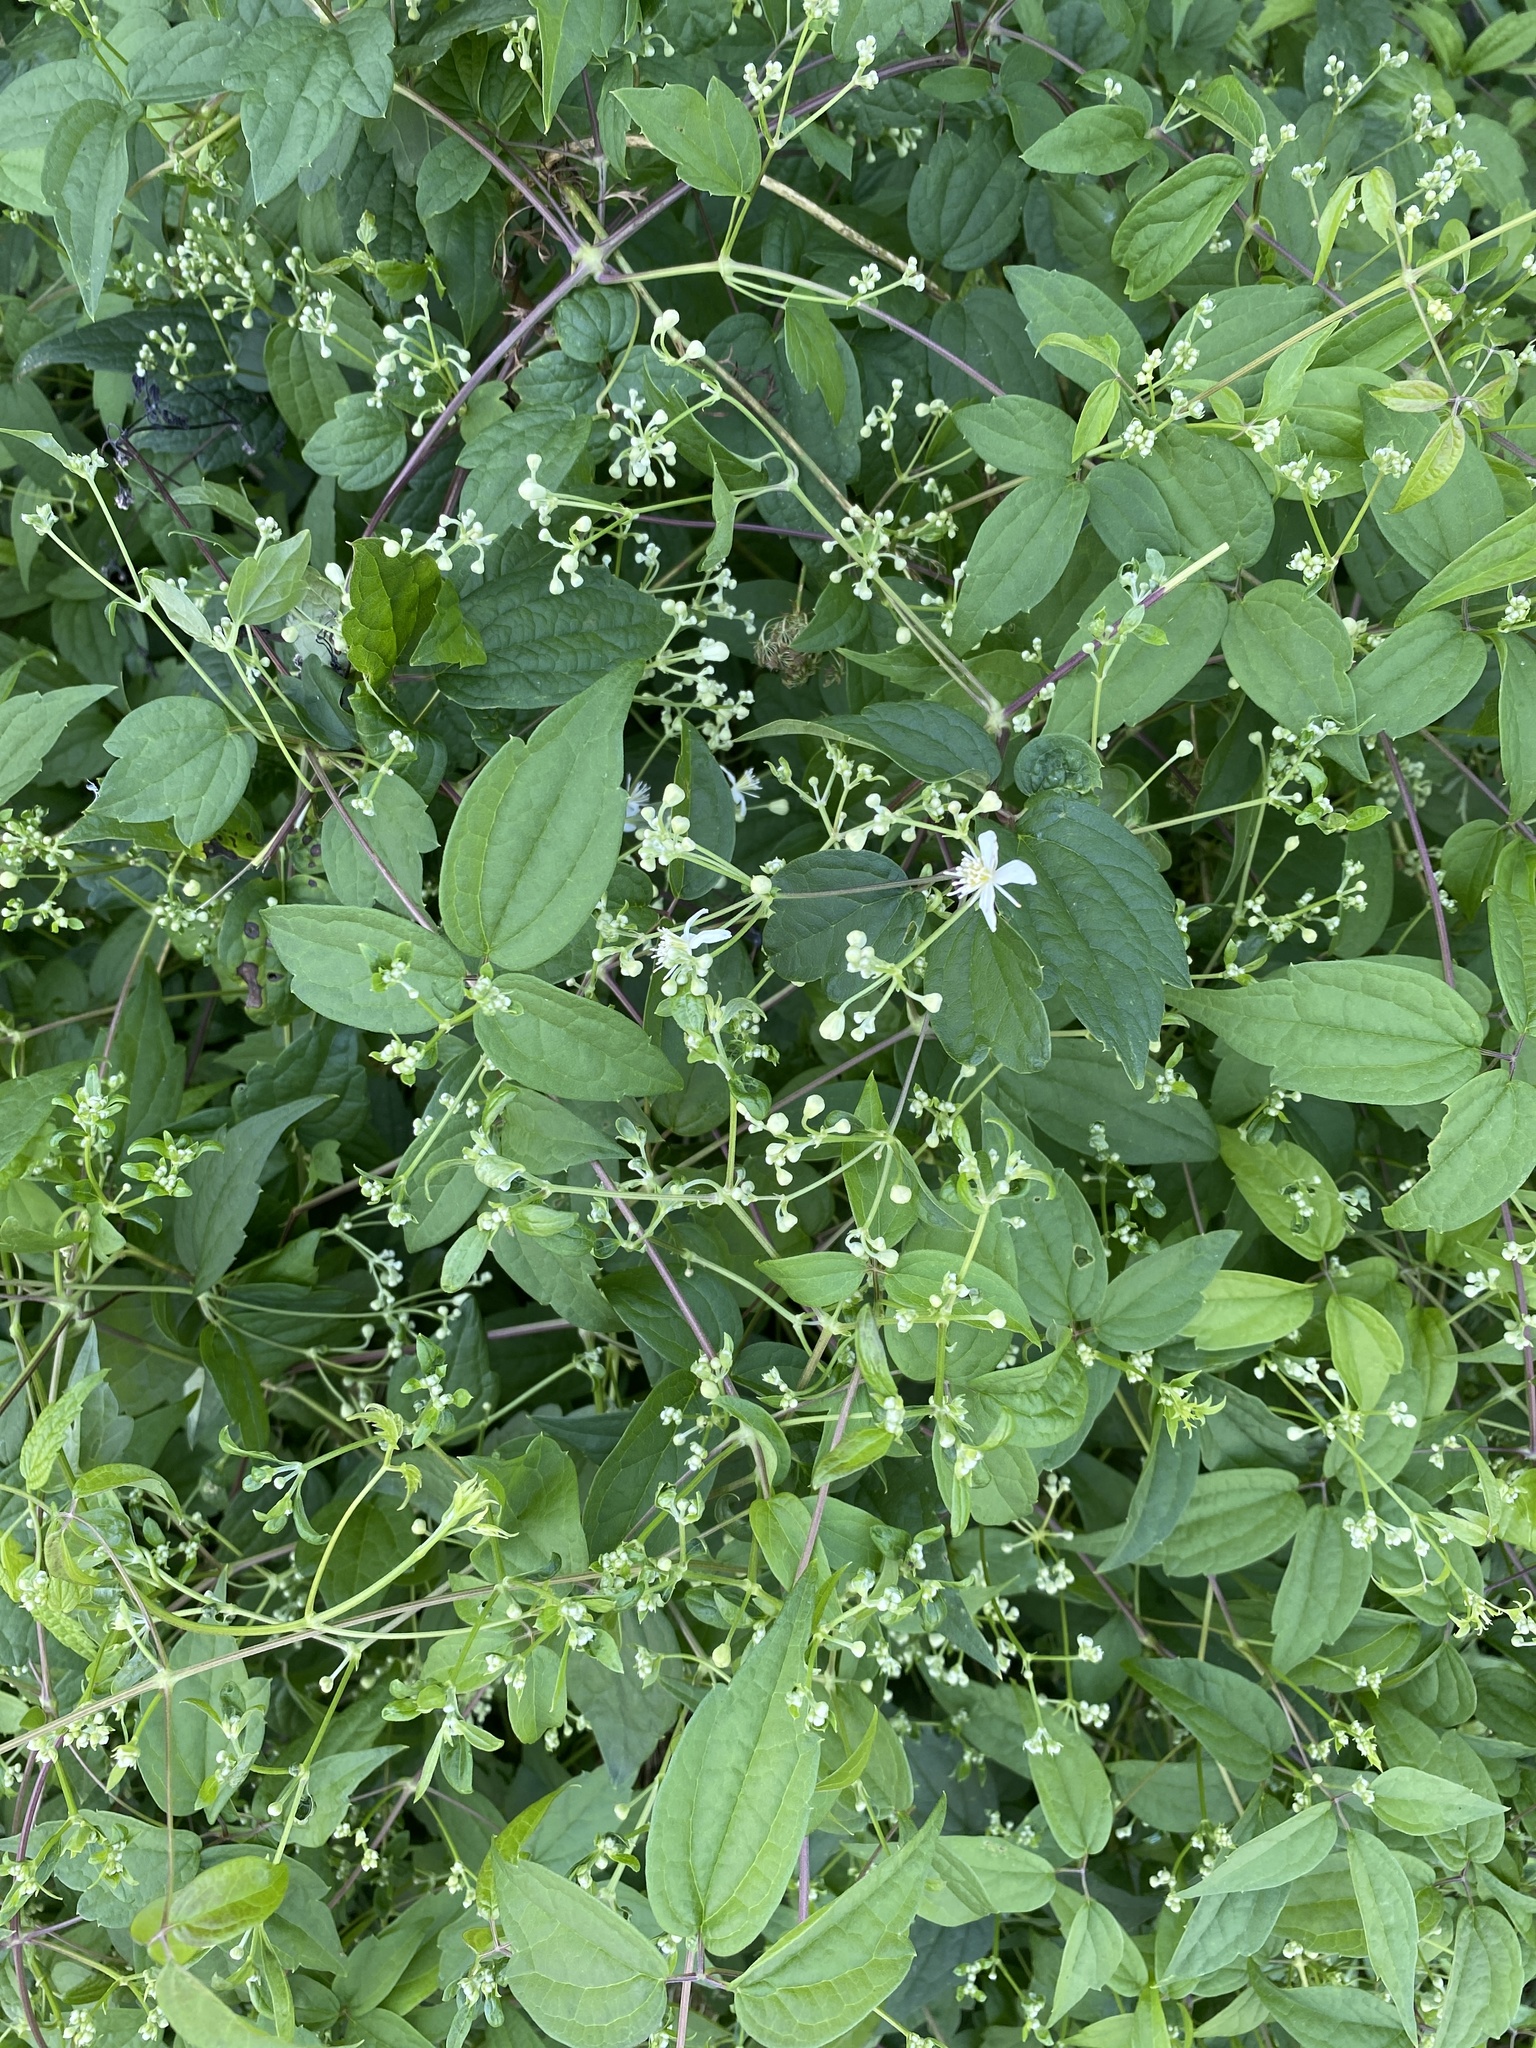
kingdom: Plantae
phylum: Tracheophyta
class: Magnoliopsida
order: Ranunculales
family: Ranunculaceae
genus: Clematis
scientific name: Clematis terniflora
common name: Sweet autumn clematis
